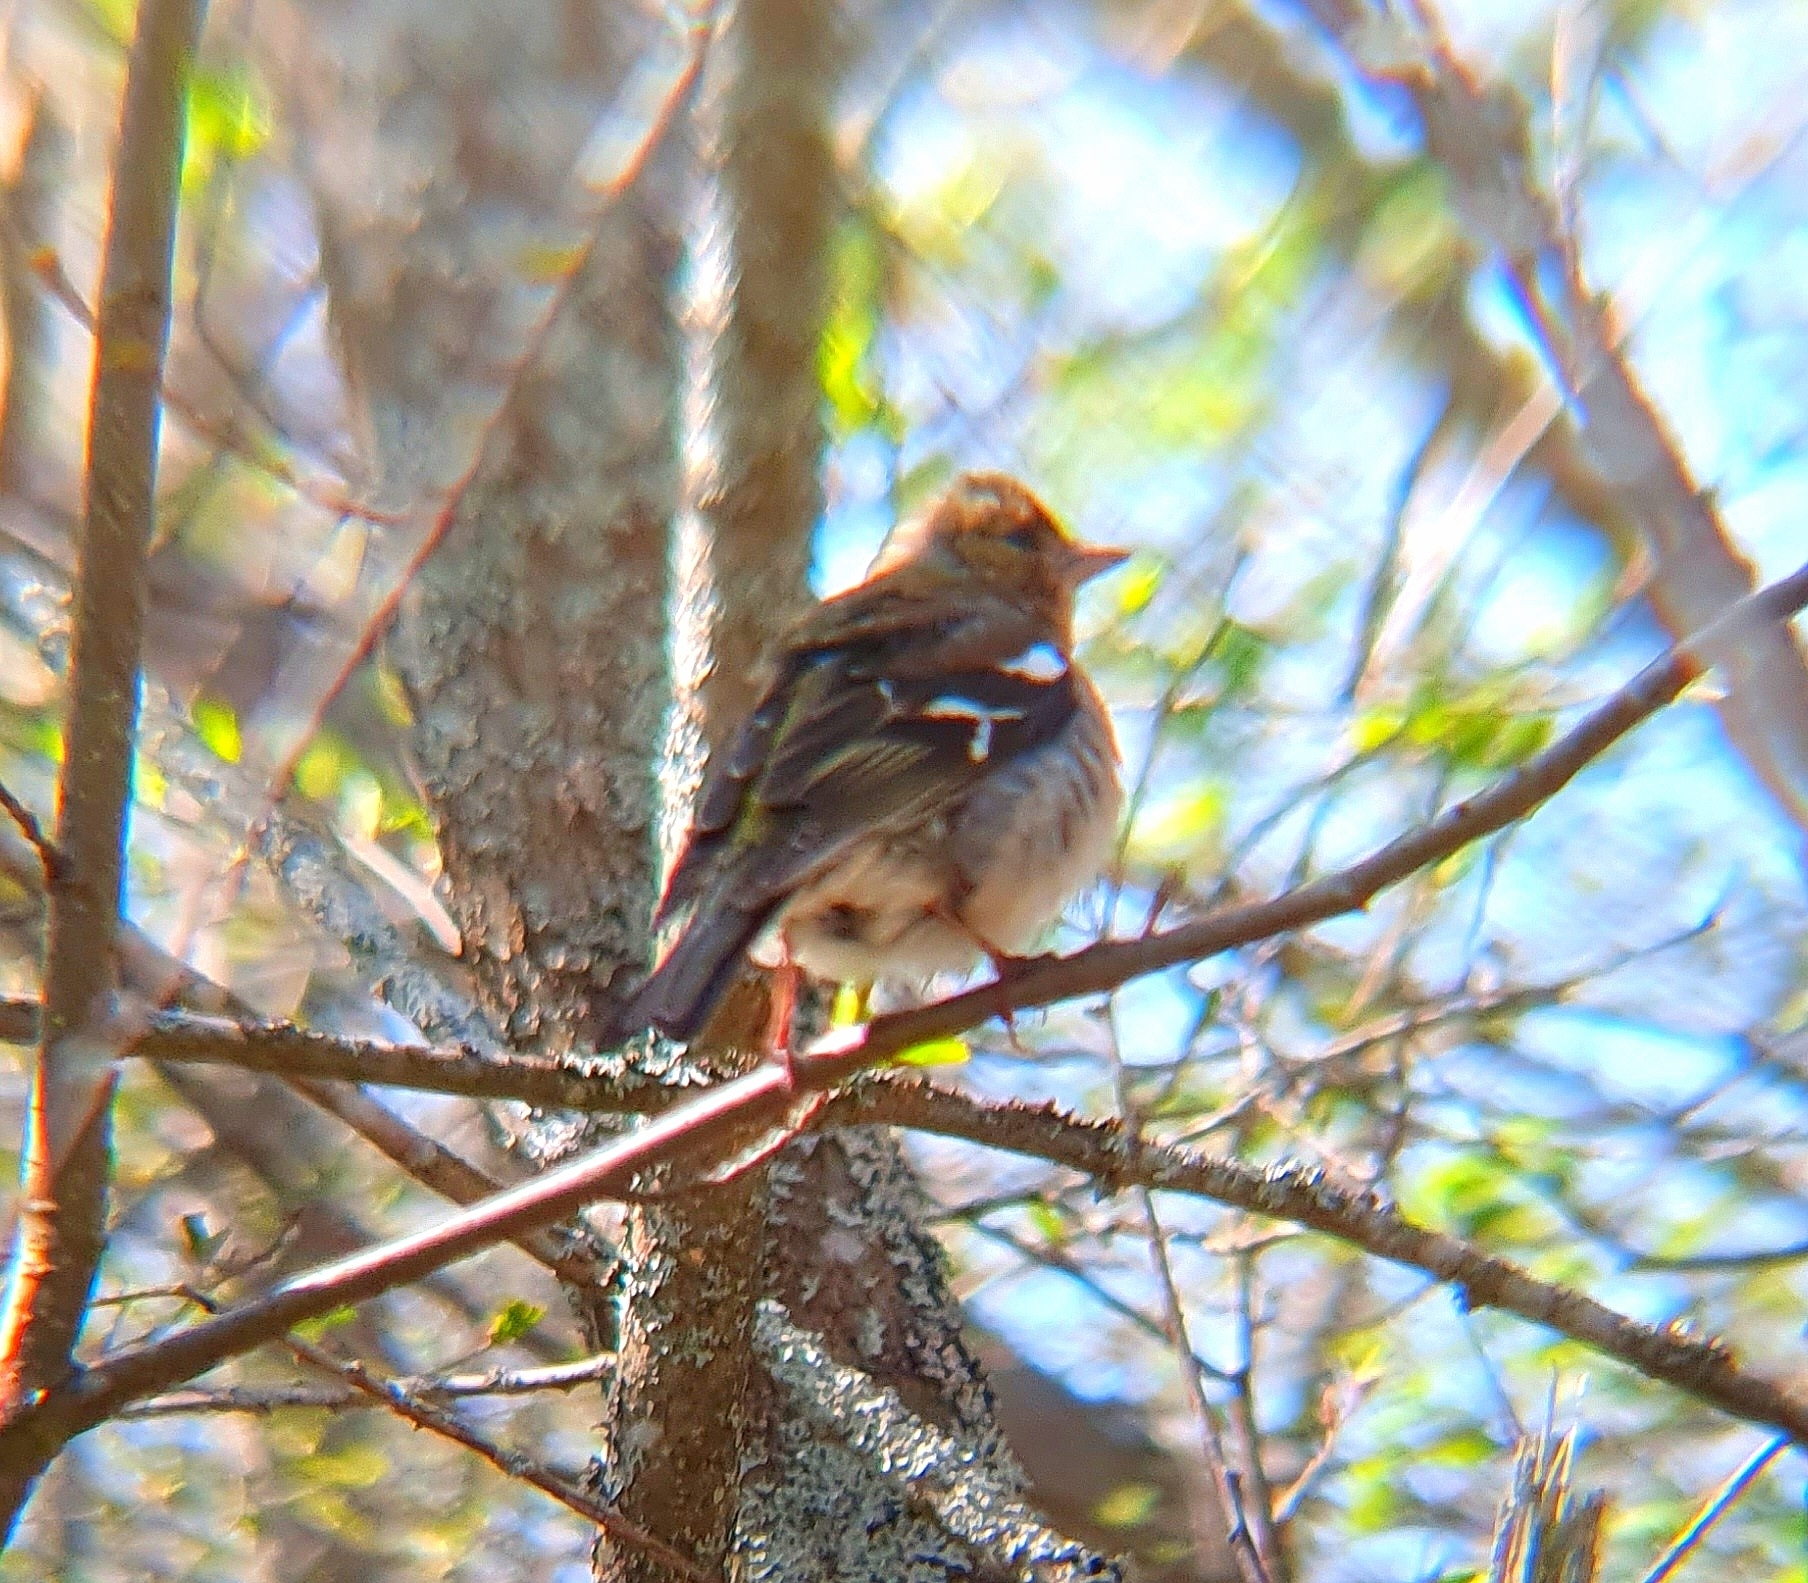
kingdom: Animalia
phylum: Chordata
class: Aves
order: Passeriformes
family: Fringillidae
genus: Fringilla
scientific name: Fringilla coelebs
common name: Common chaffinch
